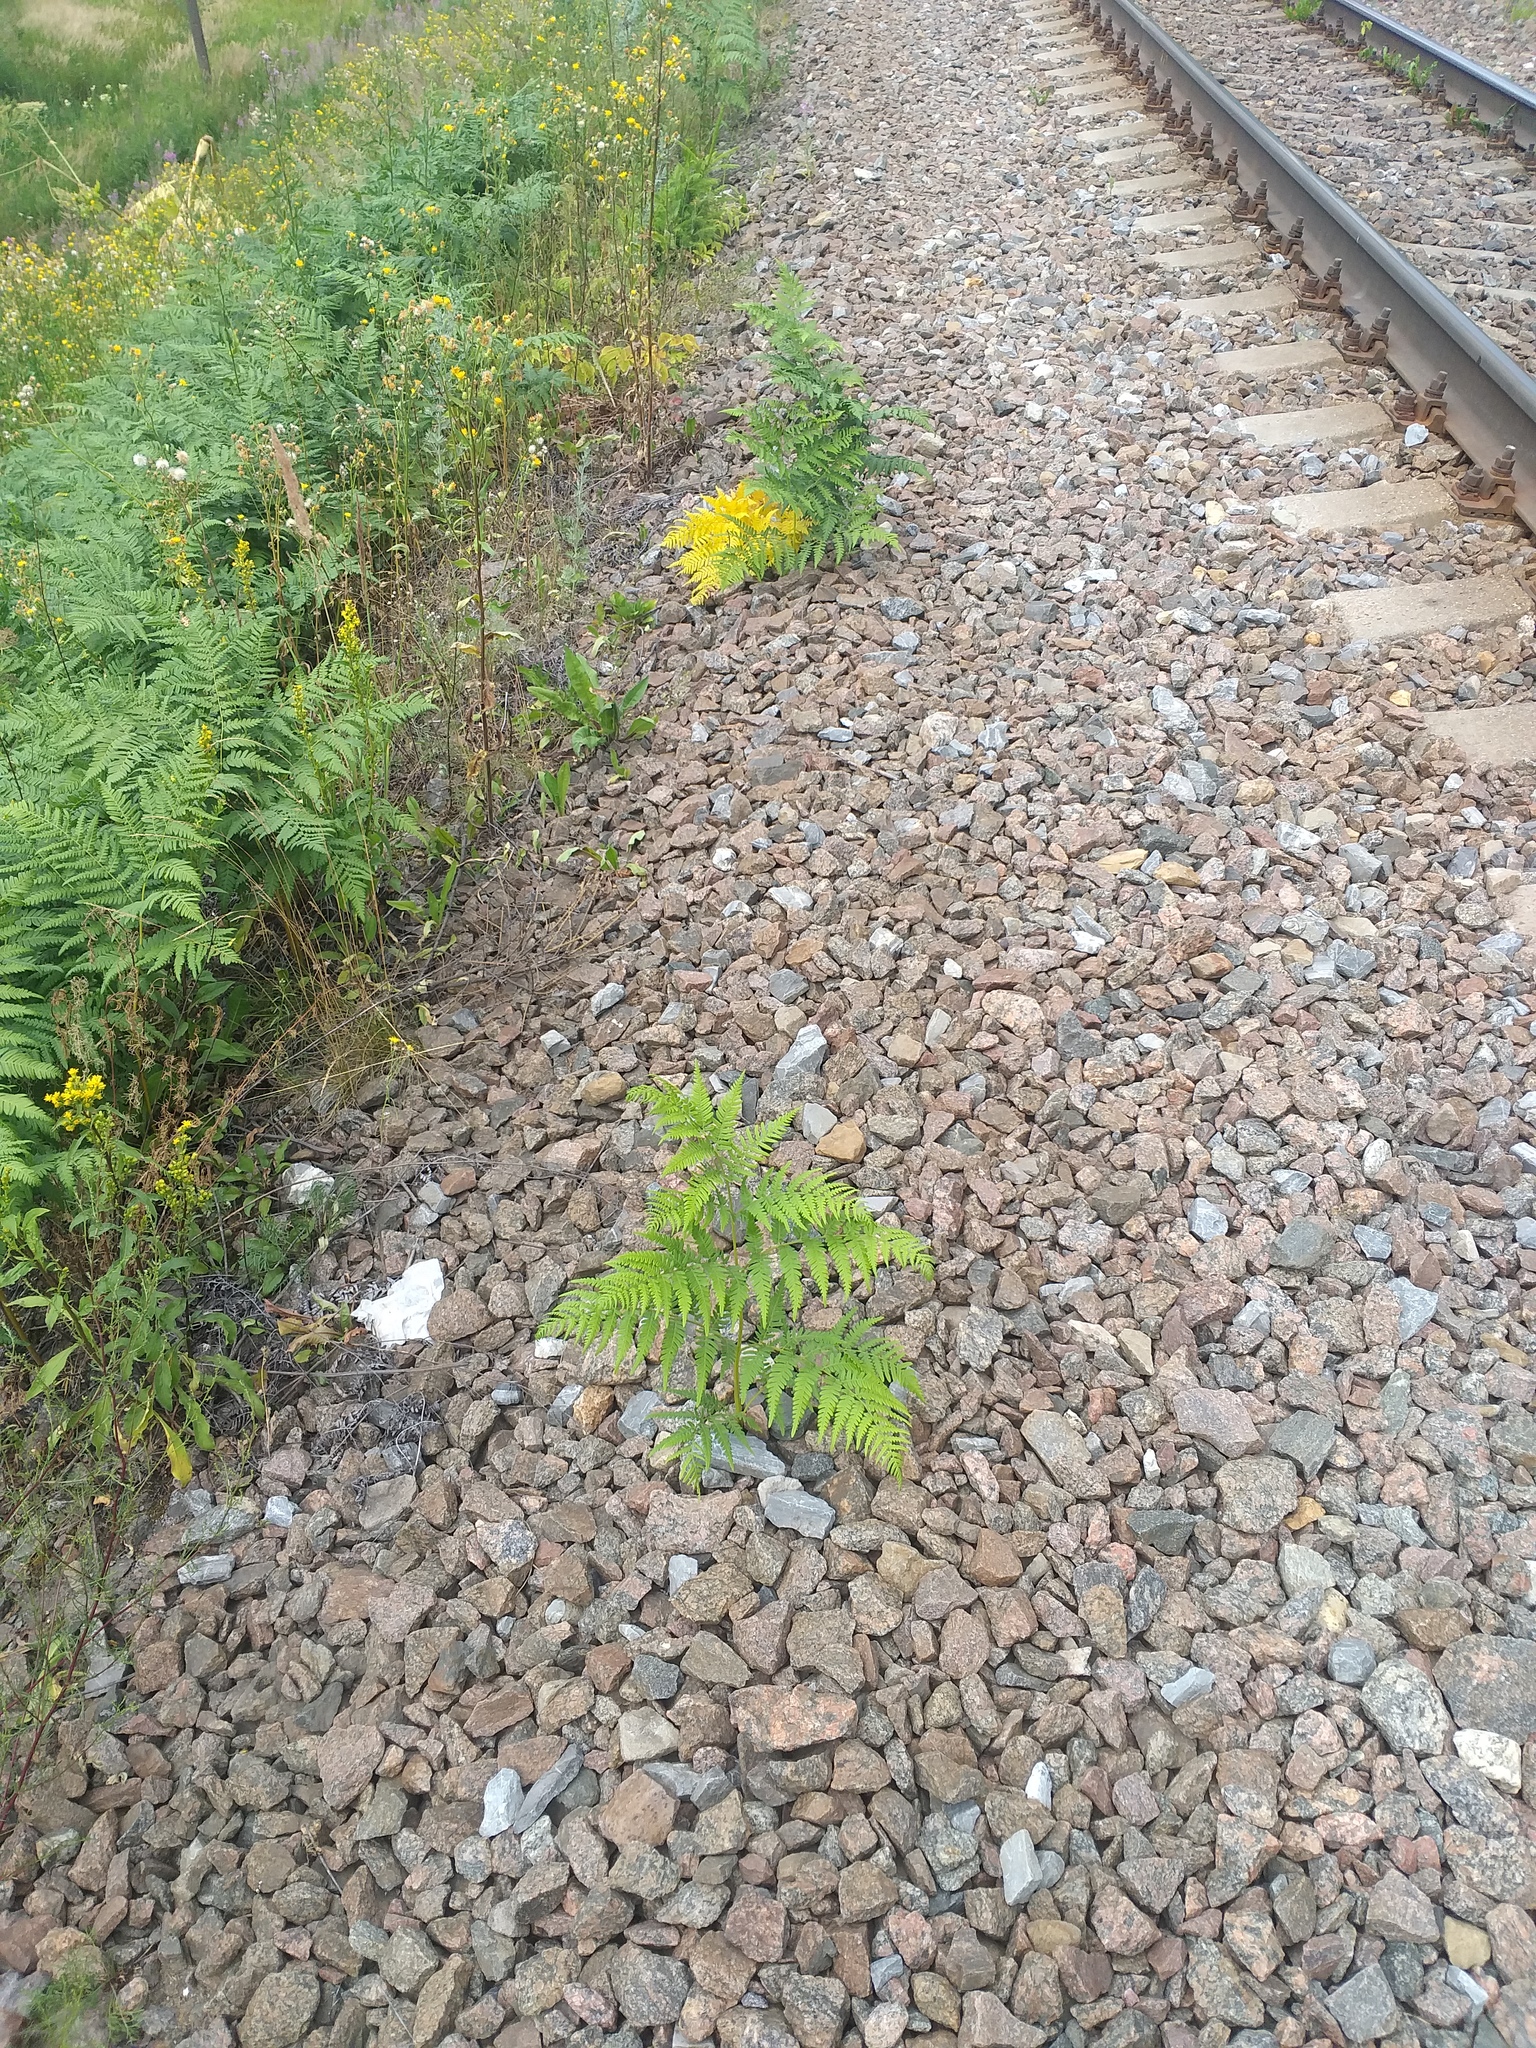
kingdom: Plantae
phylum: Tracheophyta
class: Polypodiopsida
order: Polypodiales
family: Dennstaedtiaceae
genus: Pteridium
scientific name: Pteridium aquilinum
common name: Bracken
